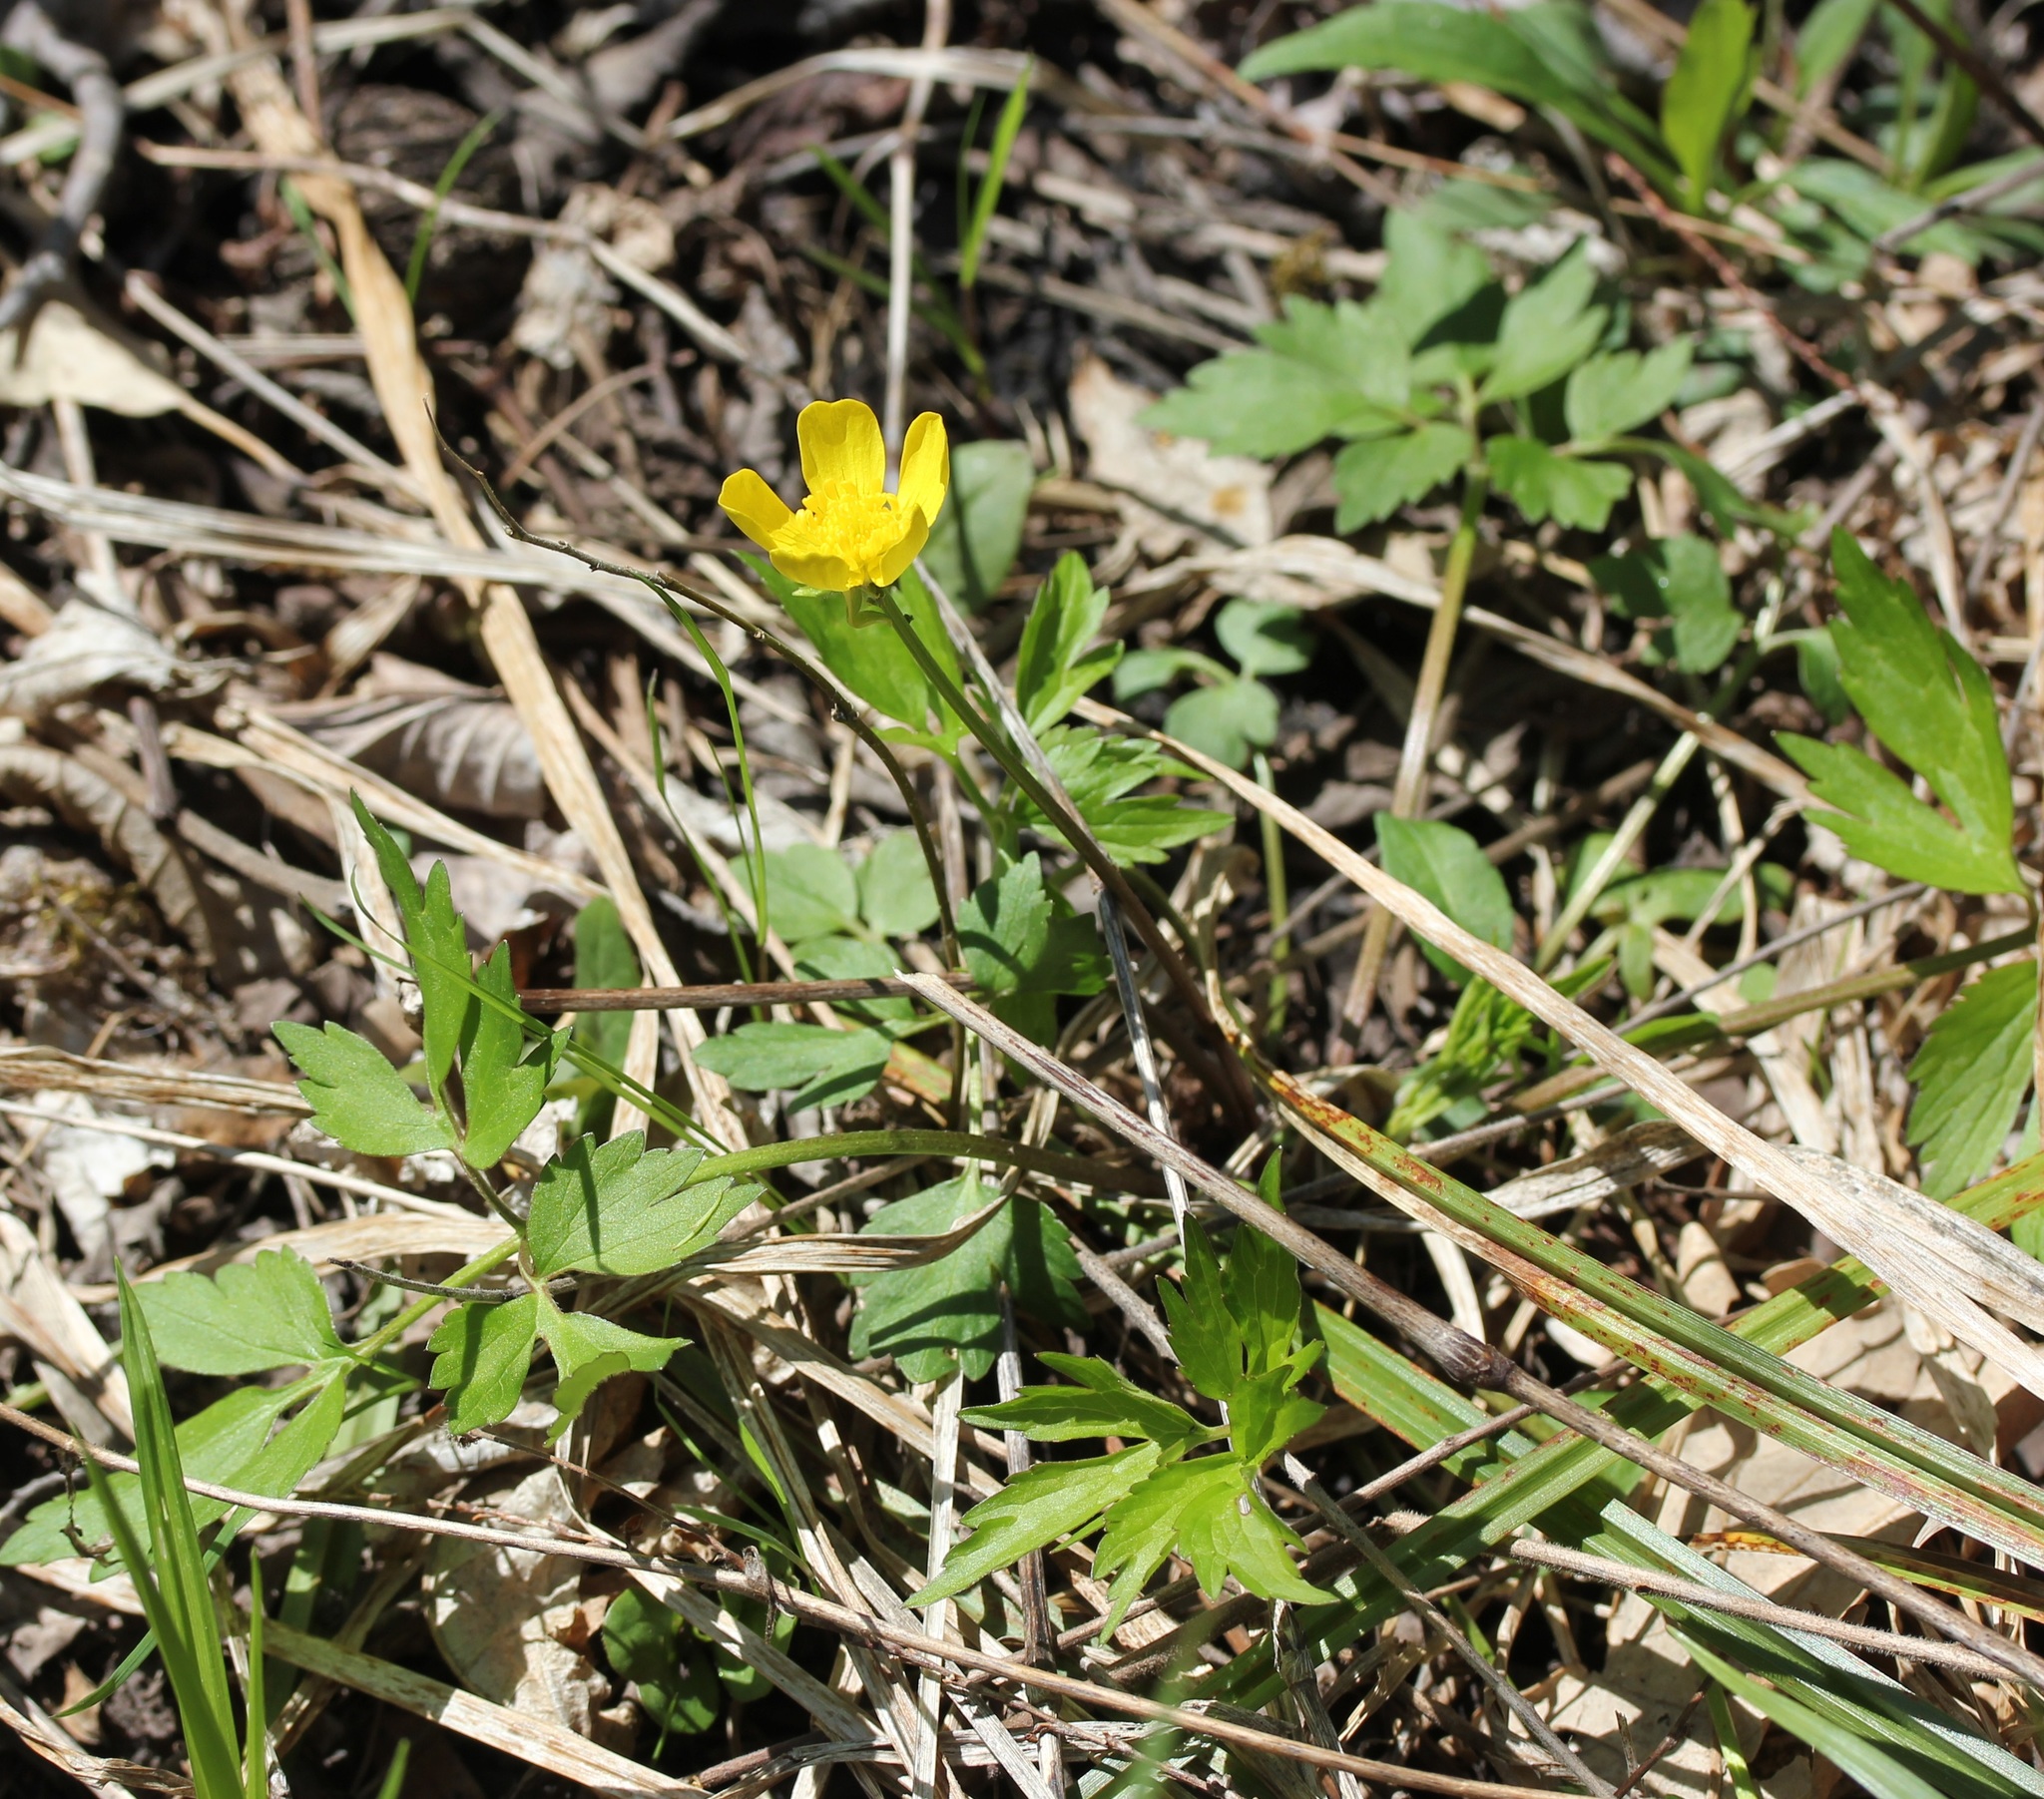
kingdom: Plantae
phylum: Tracheophyta
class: Magnoliopsida
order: Ranunculales
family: Ranunculaceae
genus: Ranunculus
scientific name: Ranunculus hispidus
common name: Bristly buttercup
